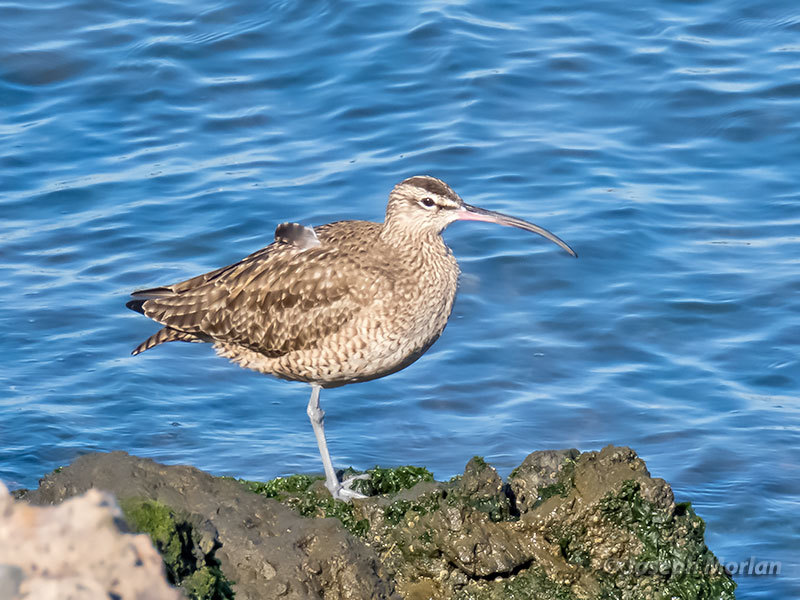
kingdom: Animalia
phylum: Chordata
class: Aves
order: Charadriiformes
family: Scolopacidae
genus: Numenius
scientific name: Numenius phaeopus
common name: Whimbrel
